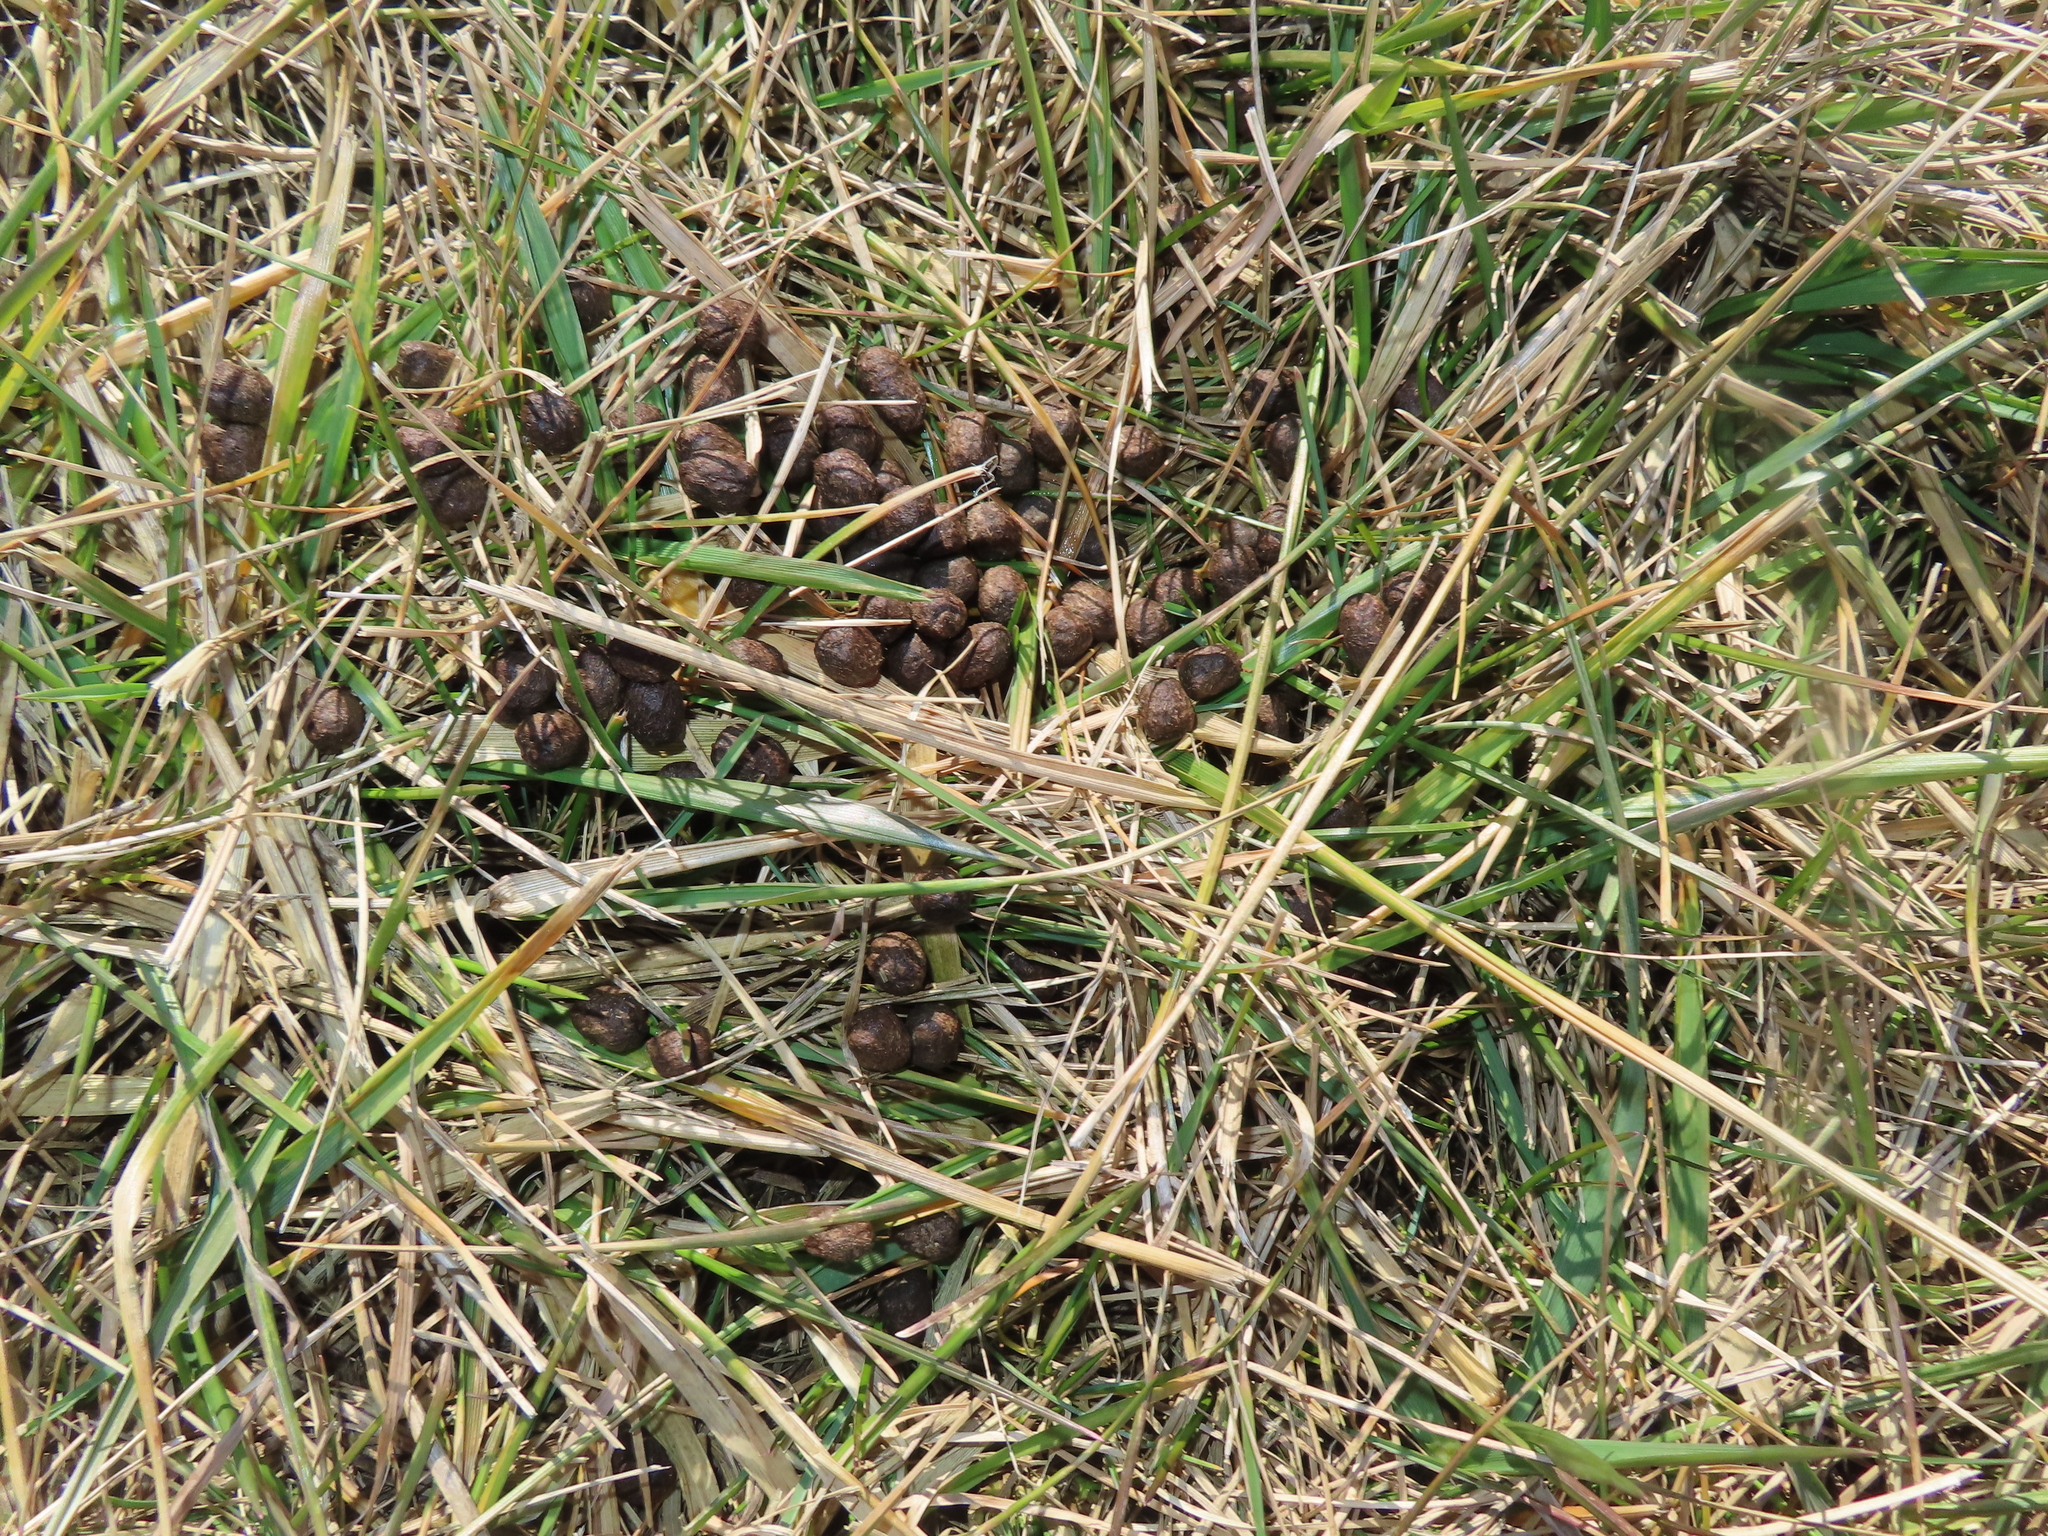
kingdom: Animalia
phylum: Chordata
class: Mammalia
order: Artiodactyla
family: Cervidae
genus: Odocoileus
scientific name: Odocoileus virginianus
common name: White-tailed deer
